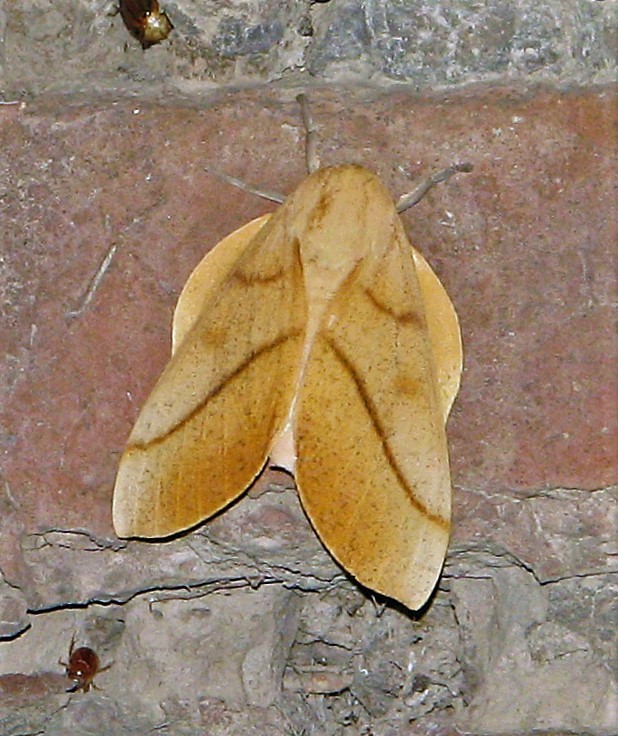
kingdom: Animalia
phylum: Arthropoda
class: Insecta
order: Lepidoptera
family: Saturniidae
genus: Syssphinx
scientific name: Syssphinx molina
